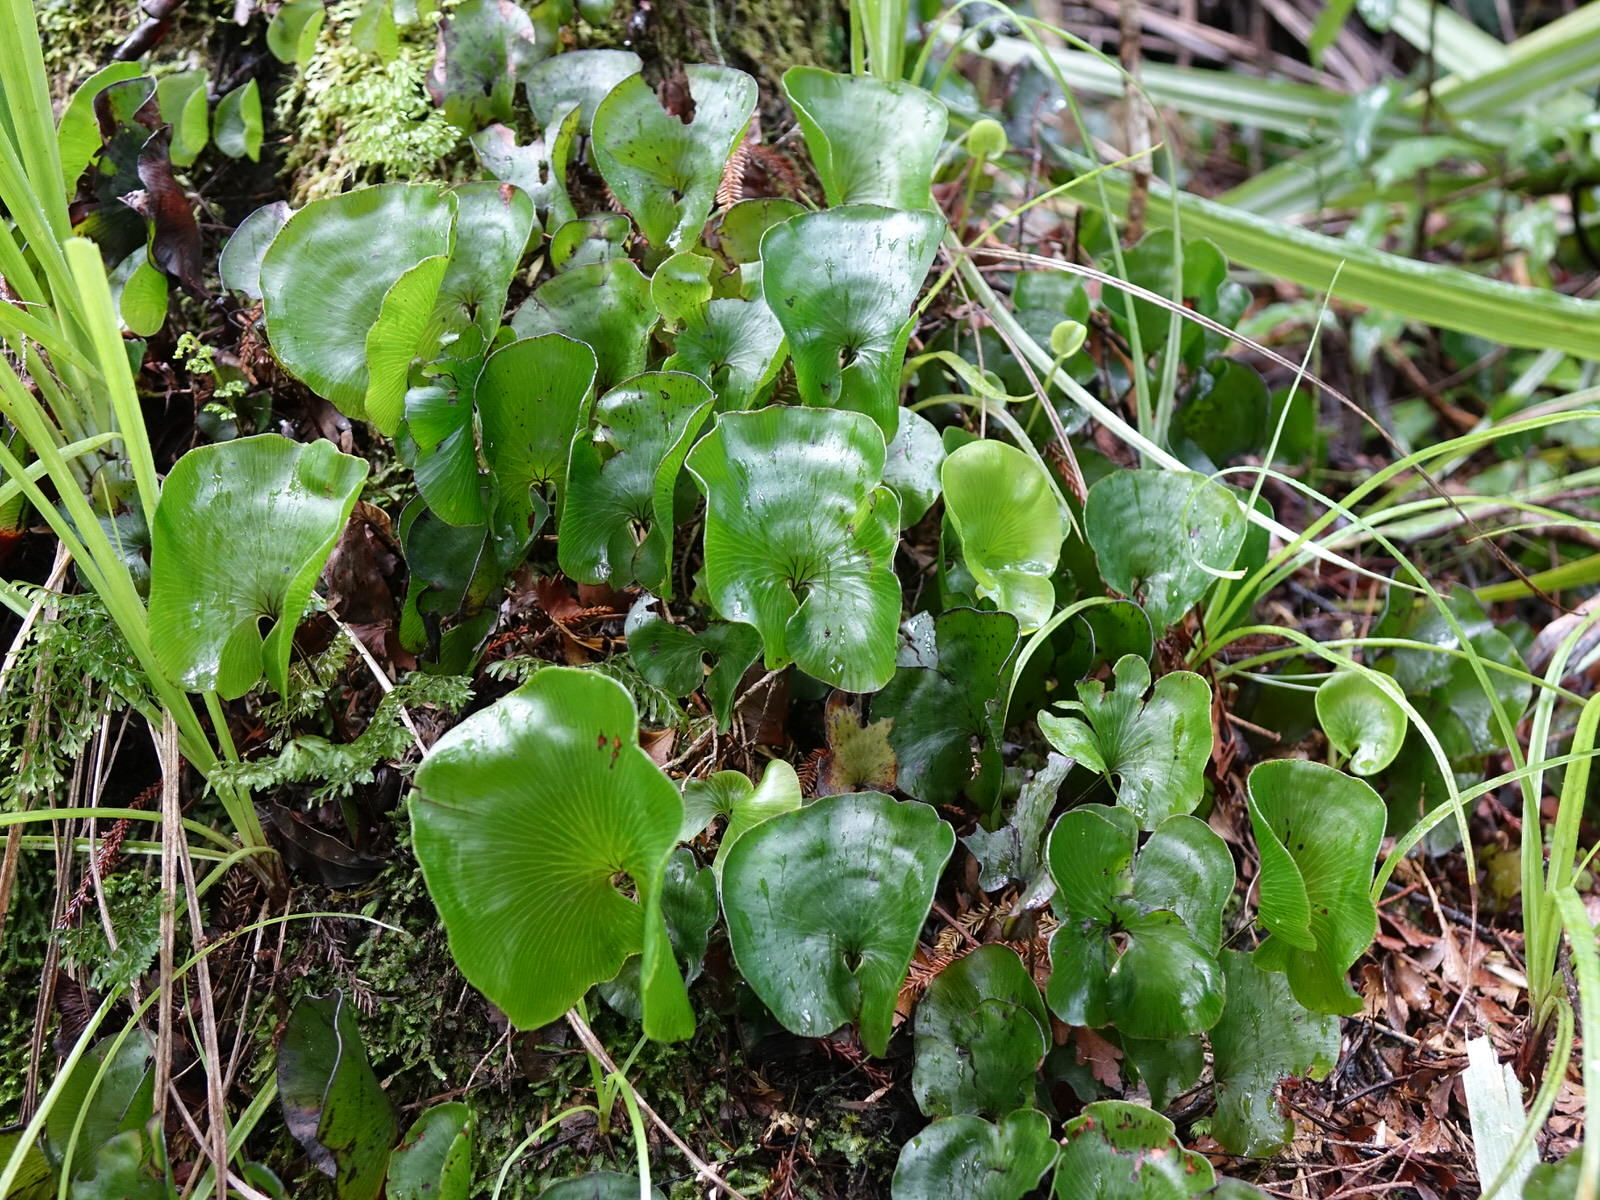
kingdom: Plantae
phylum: Tracheophyta
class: Polypodiopsida
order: Hymenophyllales
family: Hymenophyllaceae
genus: Hymenophyllum
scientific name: Hymenophyllum nephrophyllum
